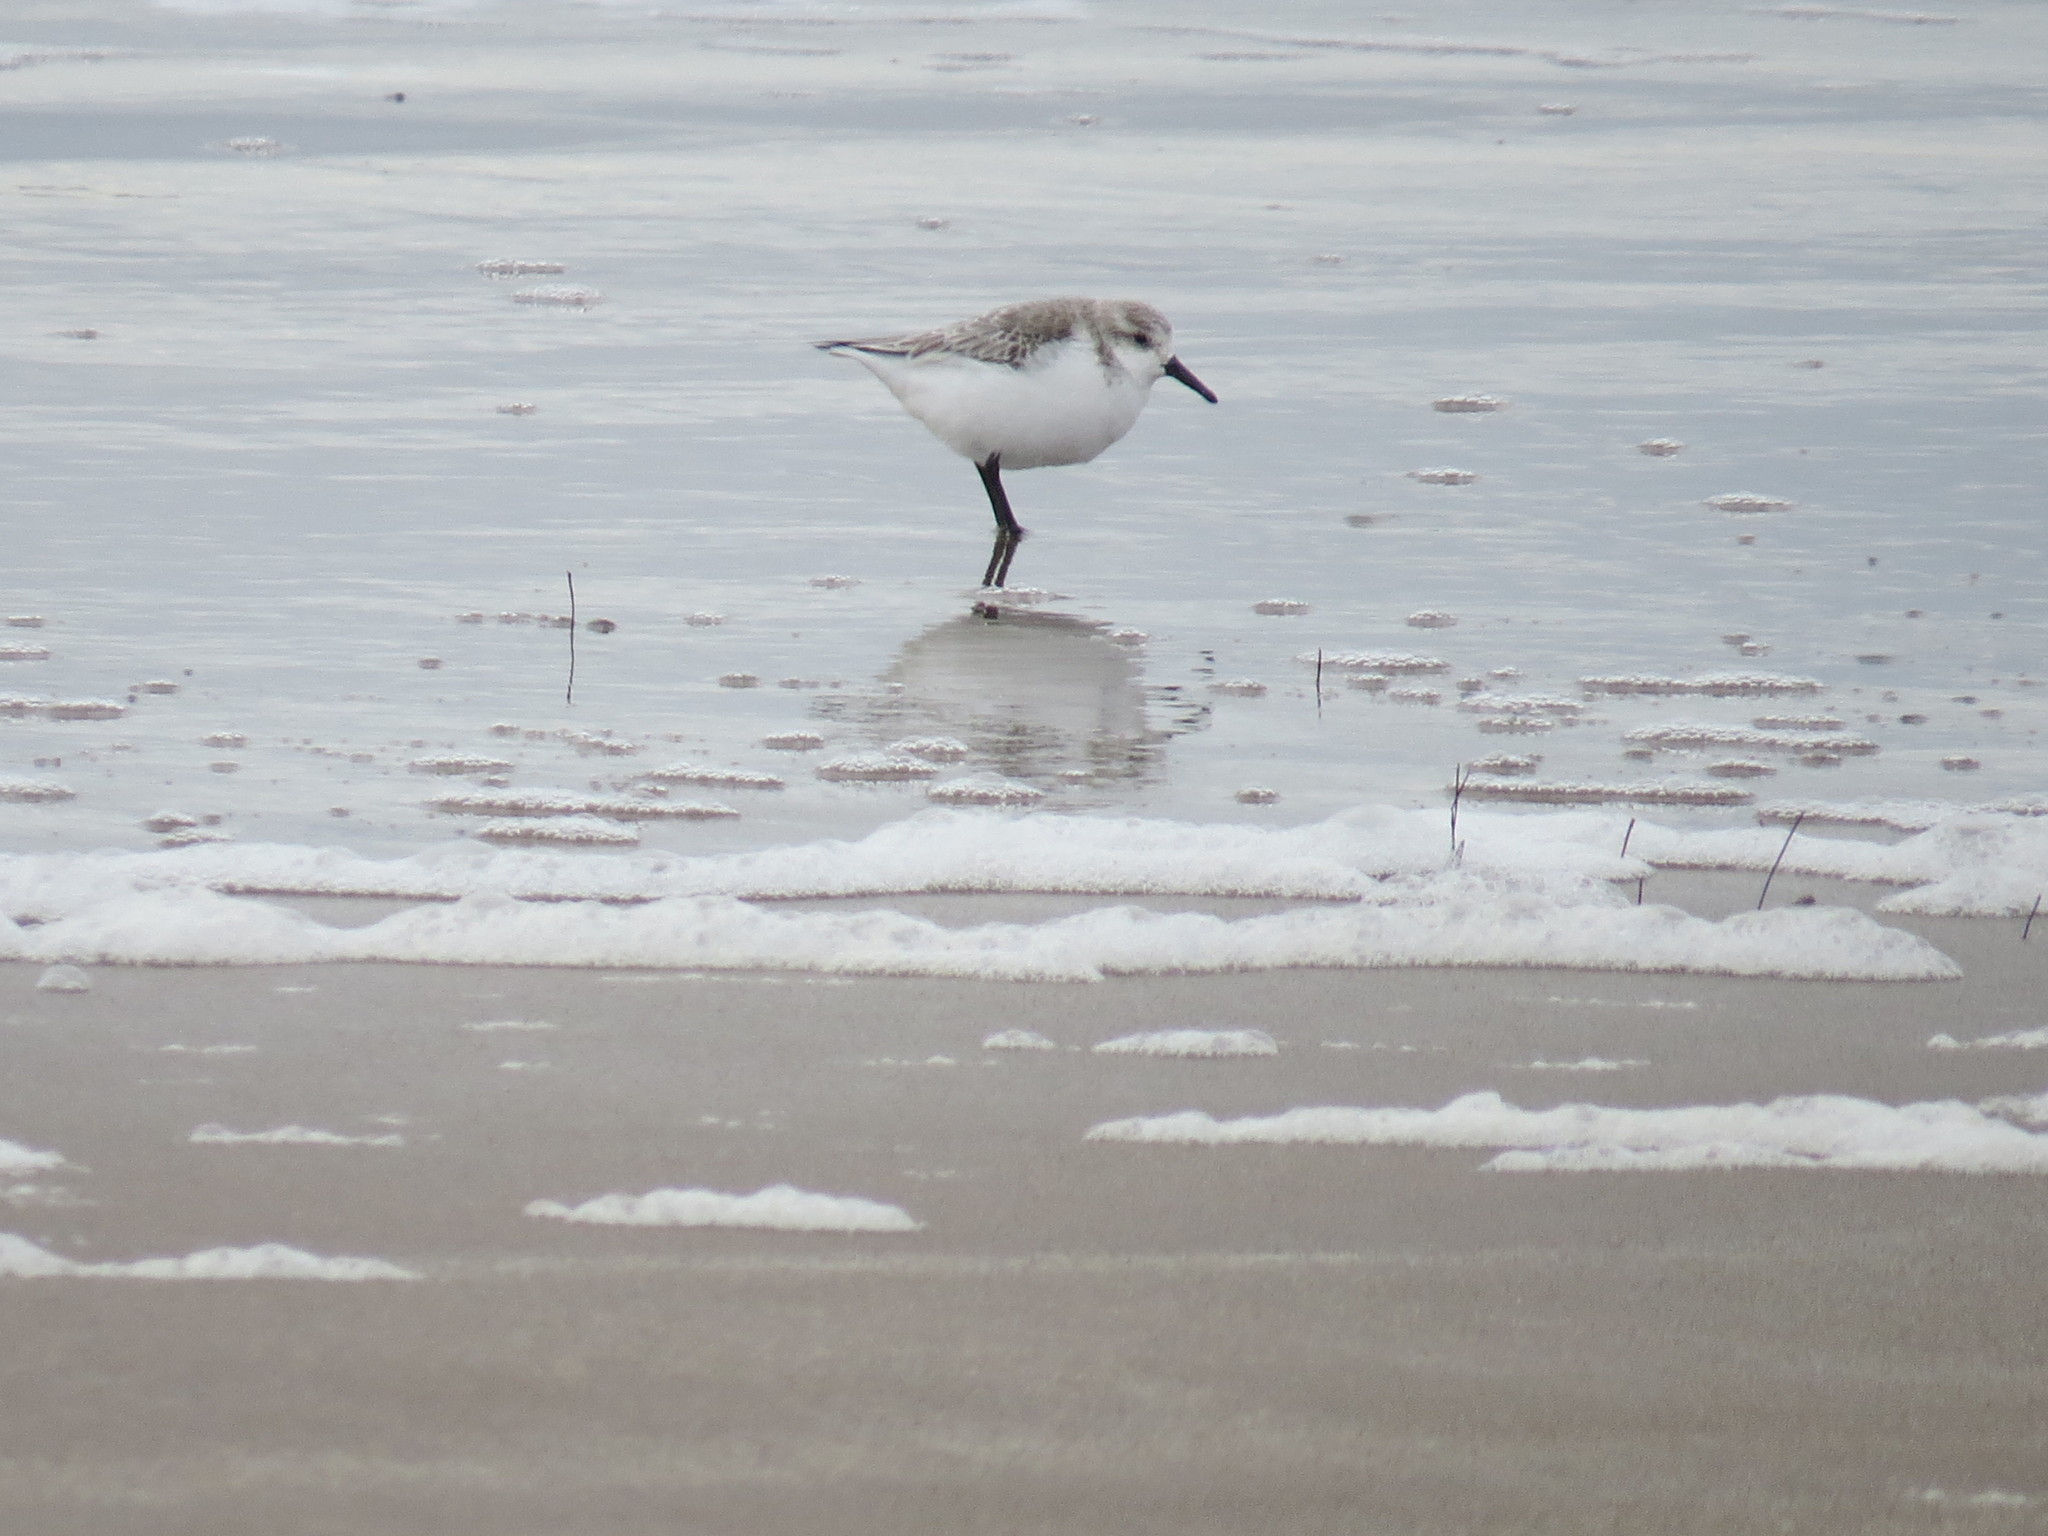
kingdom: Animalia
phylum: Chordata
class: Aves
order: Charadriiformes
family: Scolopacidae
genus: Calidris
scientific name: Calidris alba
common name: Sanderling
